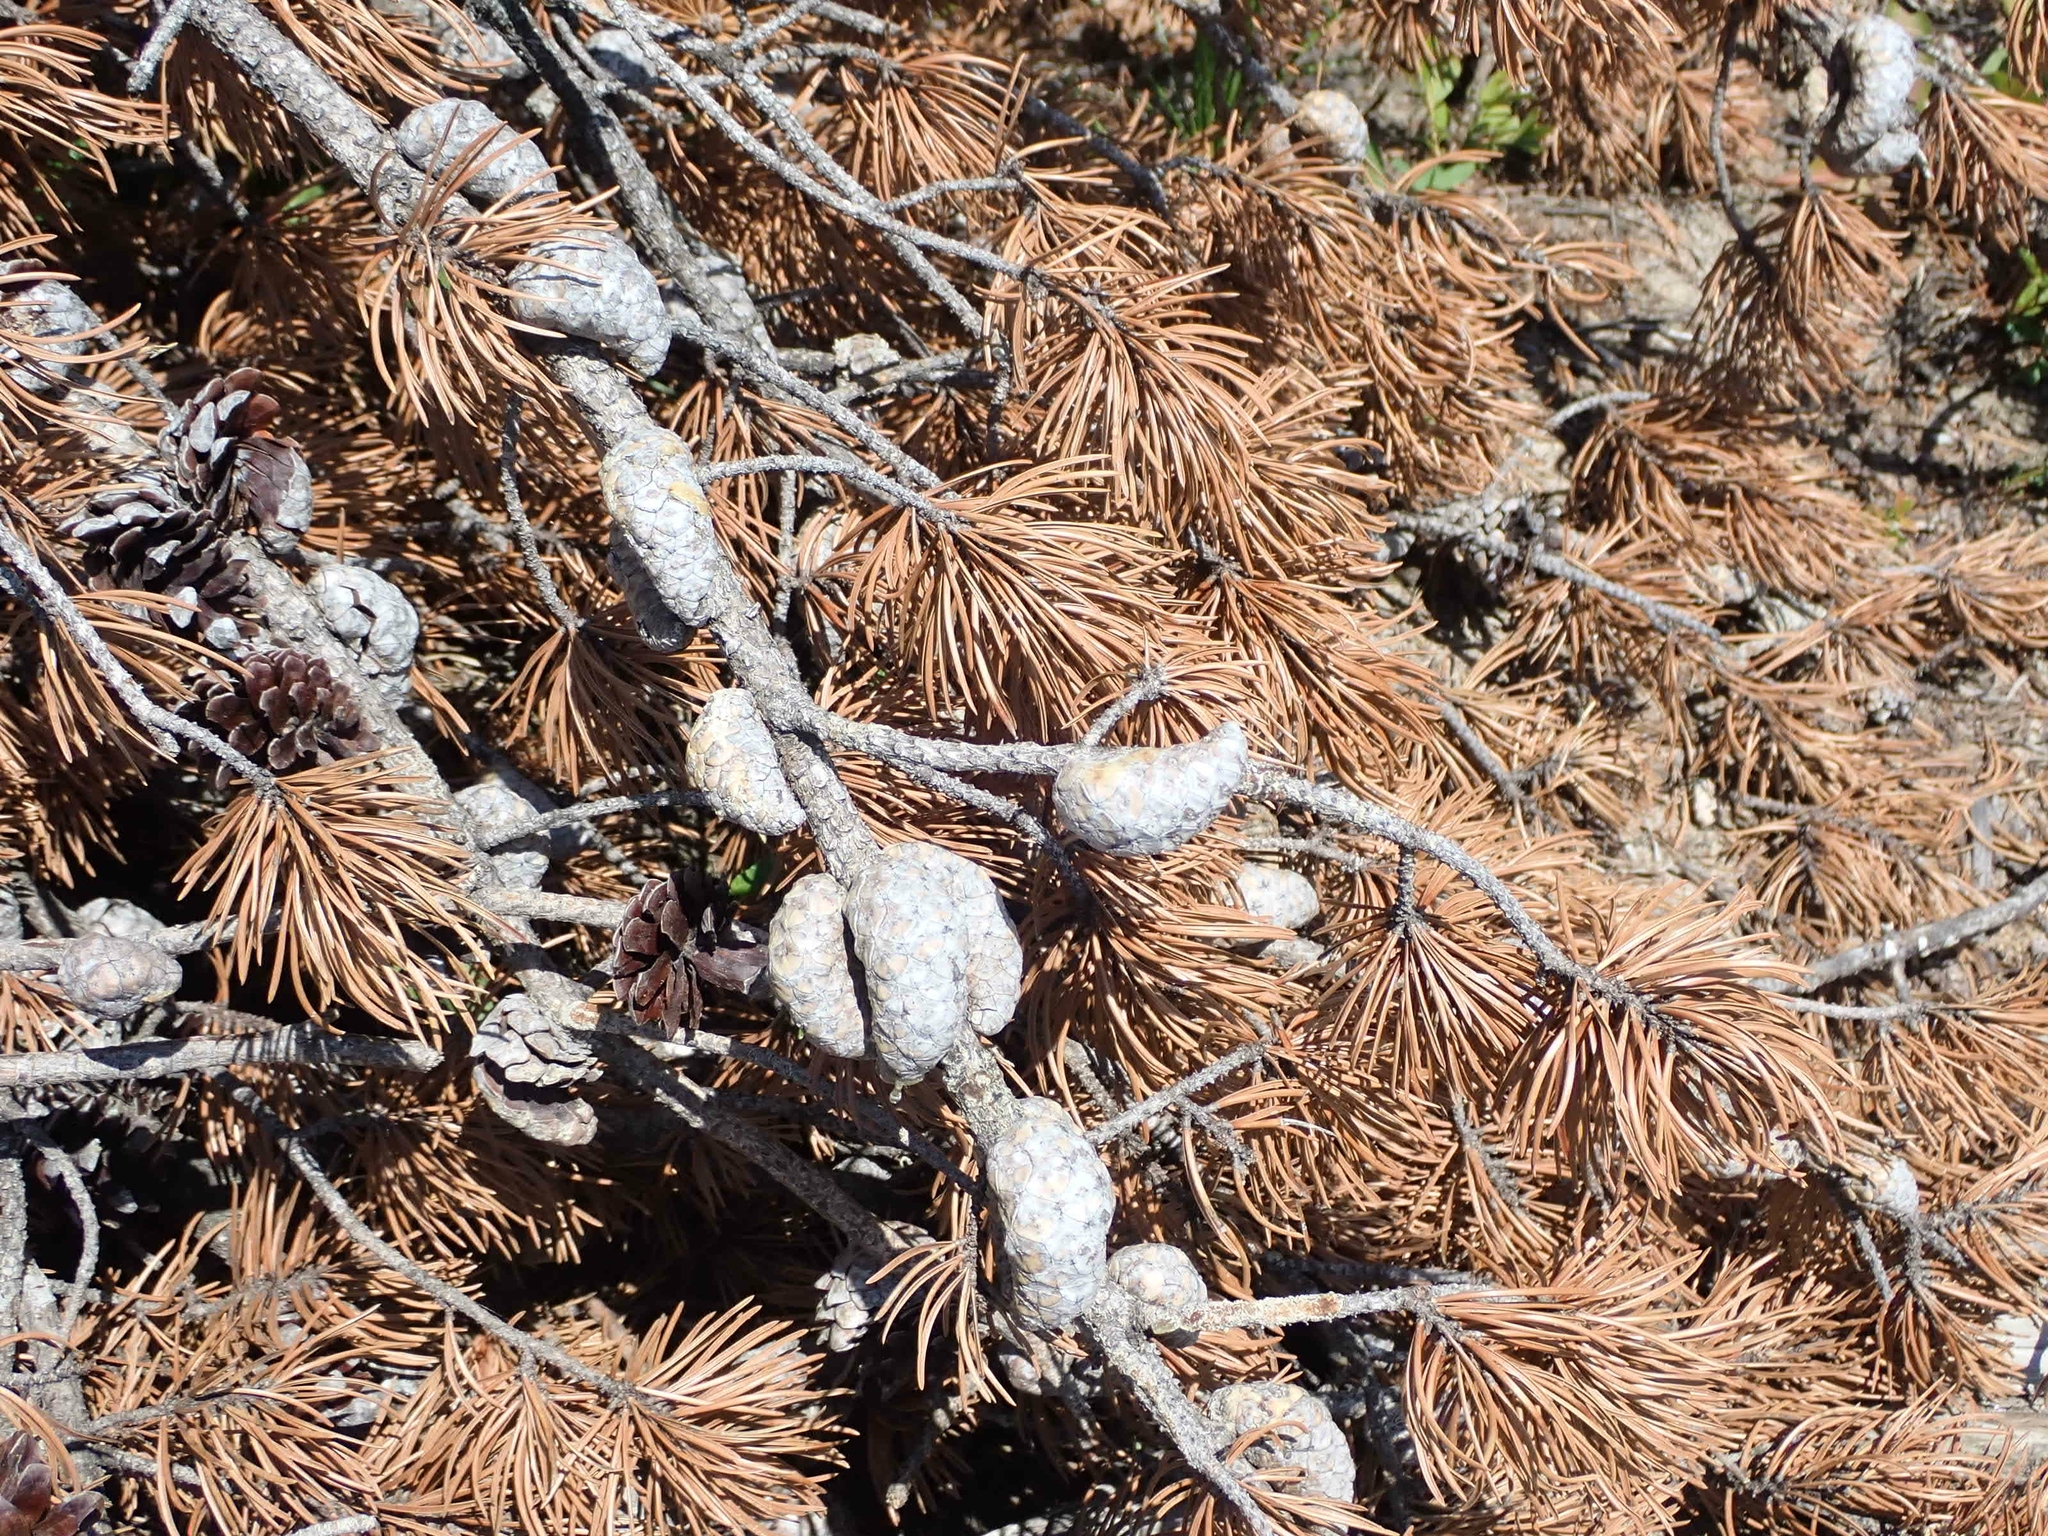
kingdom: Plantae
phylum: Tracheophyta
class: Pinopsida
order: Pinales
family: Pinaceae
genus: Pinus
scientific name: Pinus banksiana
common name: Jack pine
